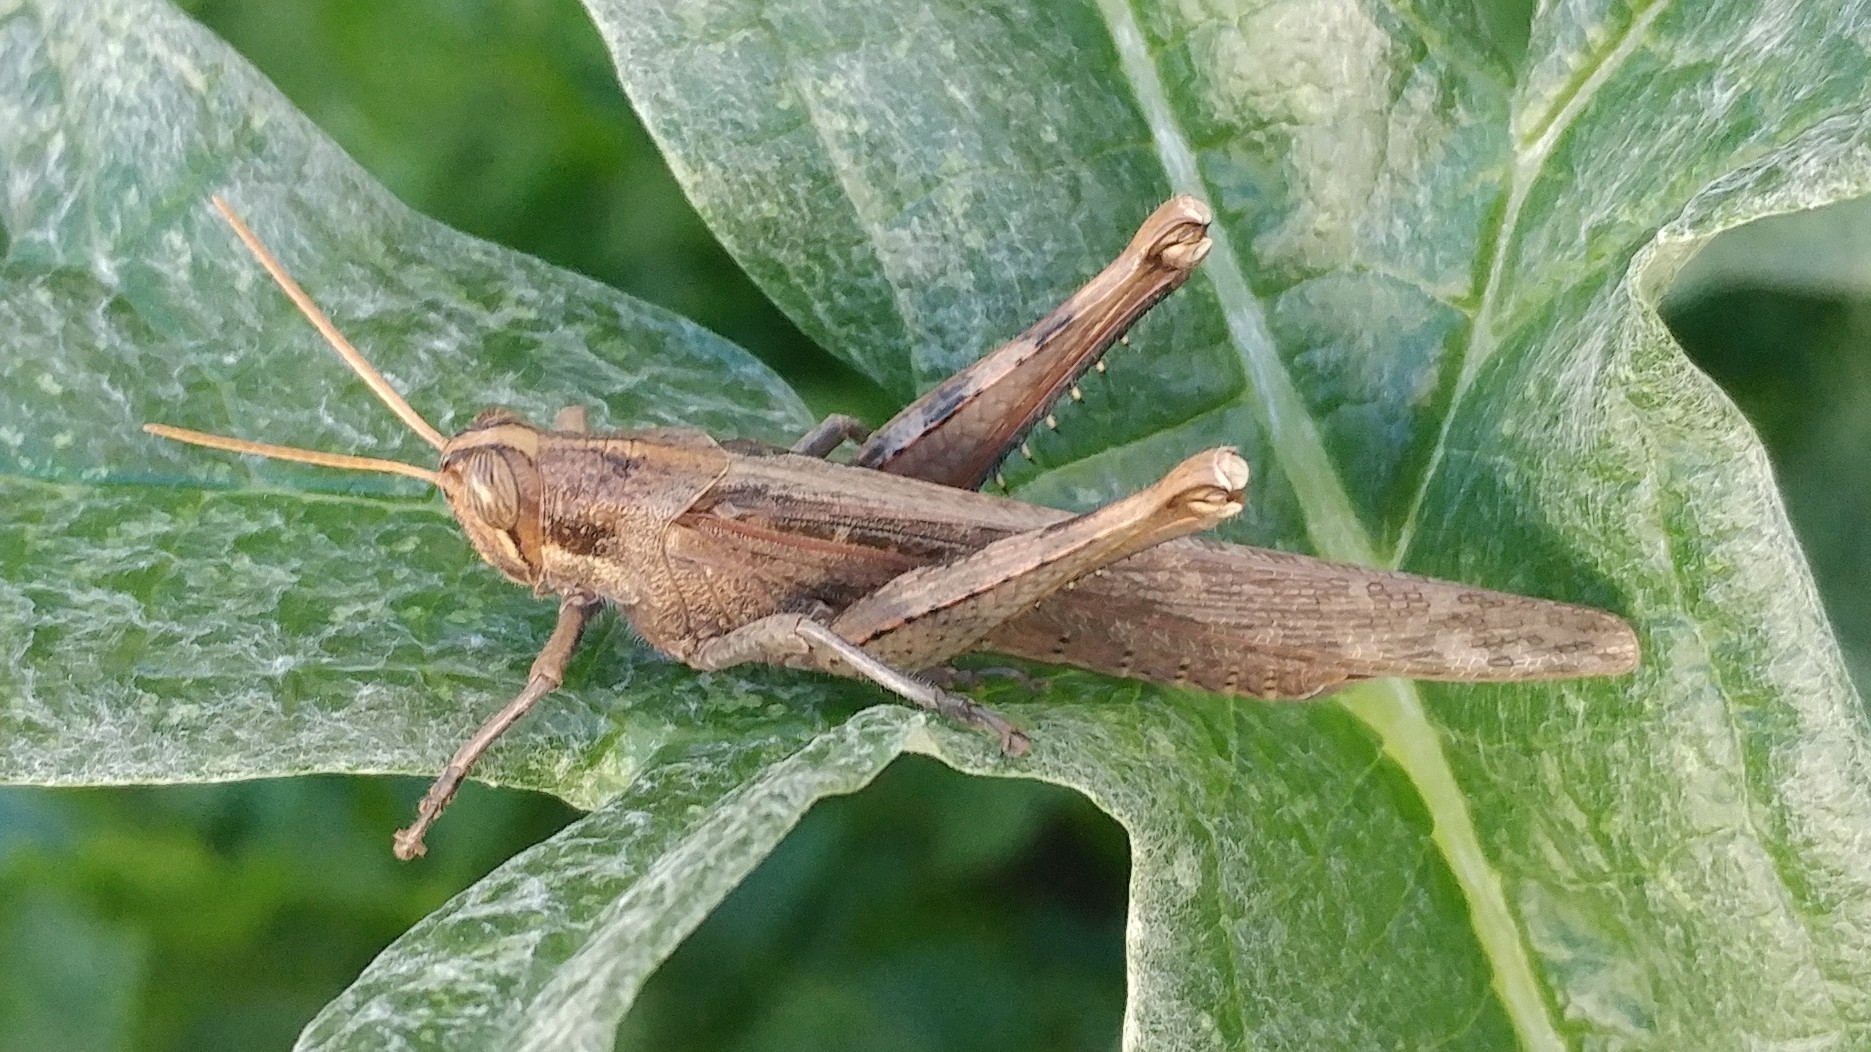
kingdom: Animalia
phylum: Arthropoda
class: Insecta
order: Orthoptera
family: Acrididae
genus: Schistocerca
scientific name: Schistocerca nitens
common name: Vagrant grasshopper
